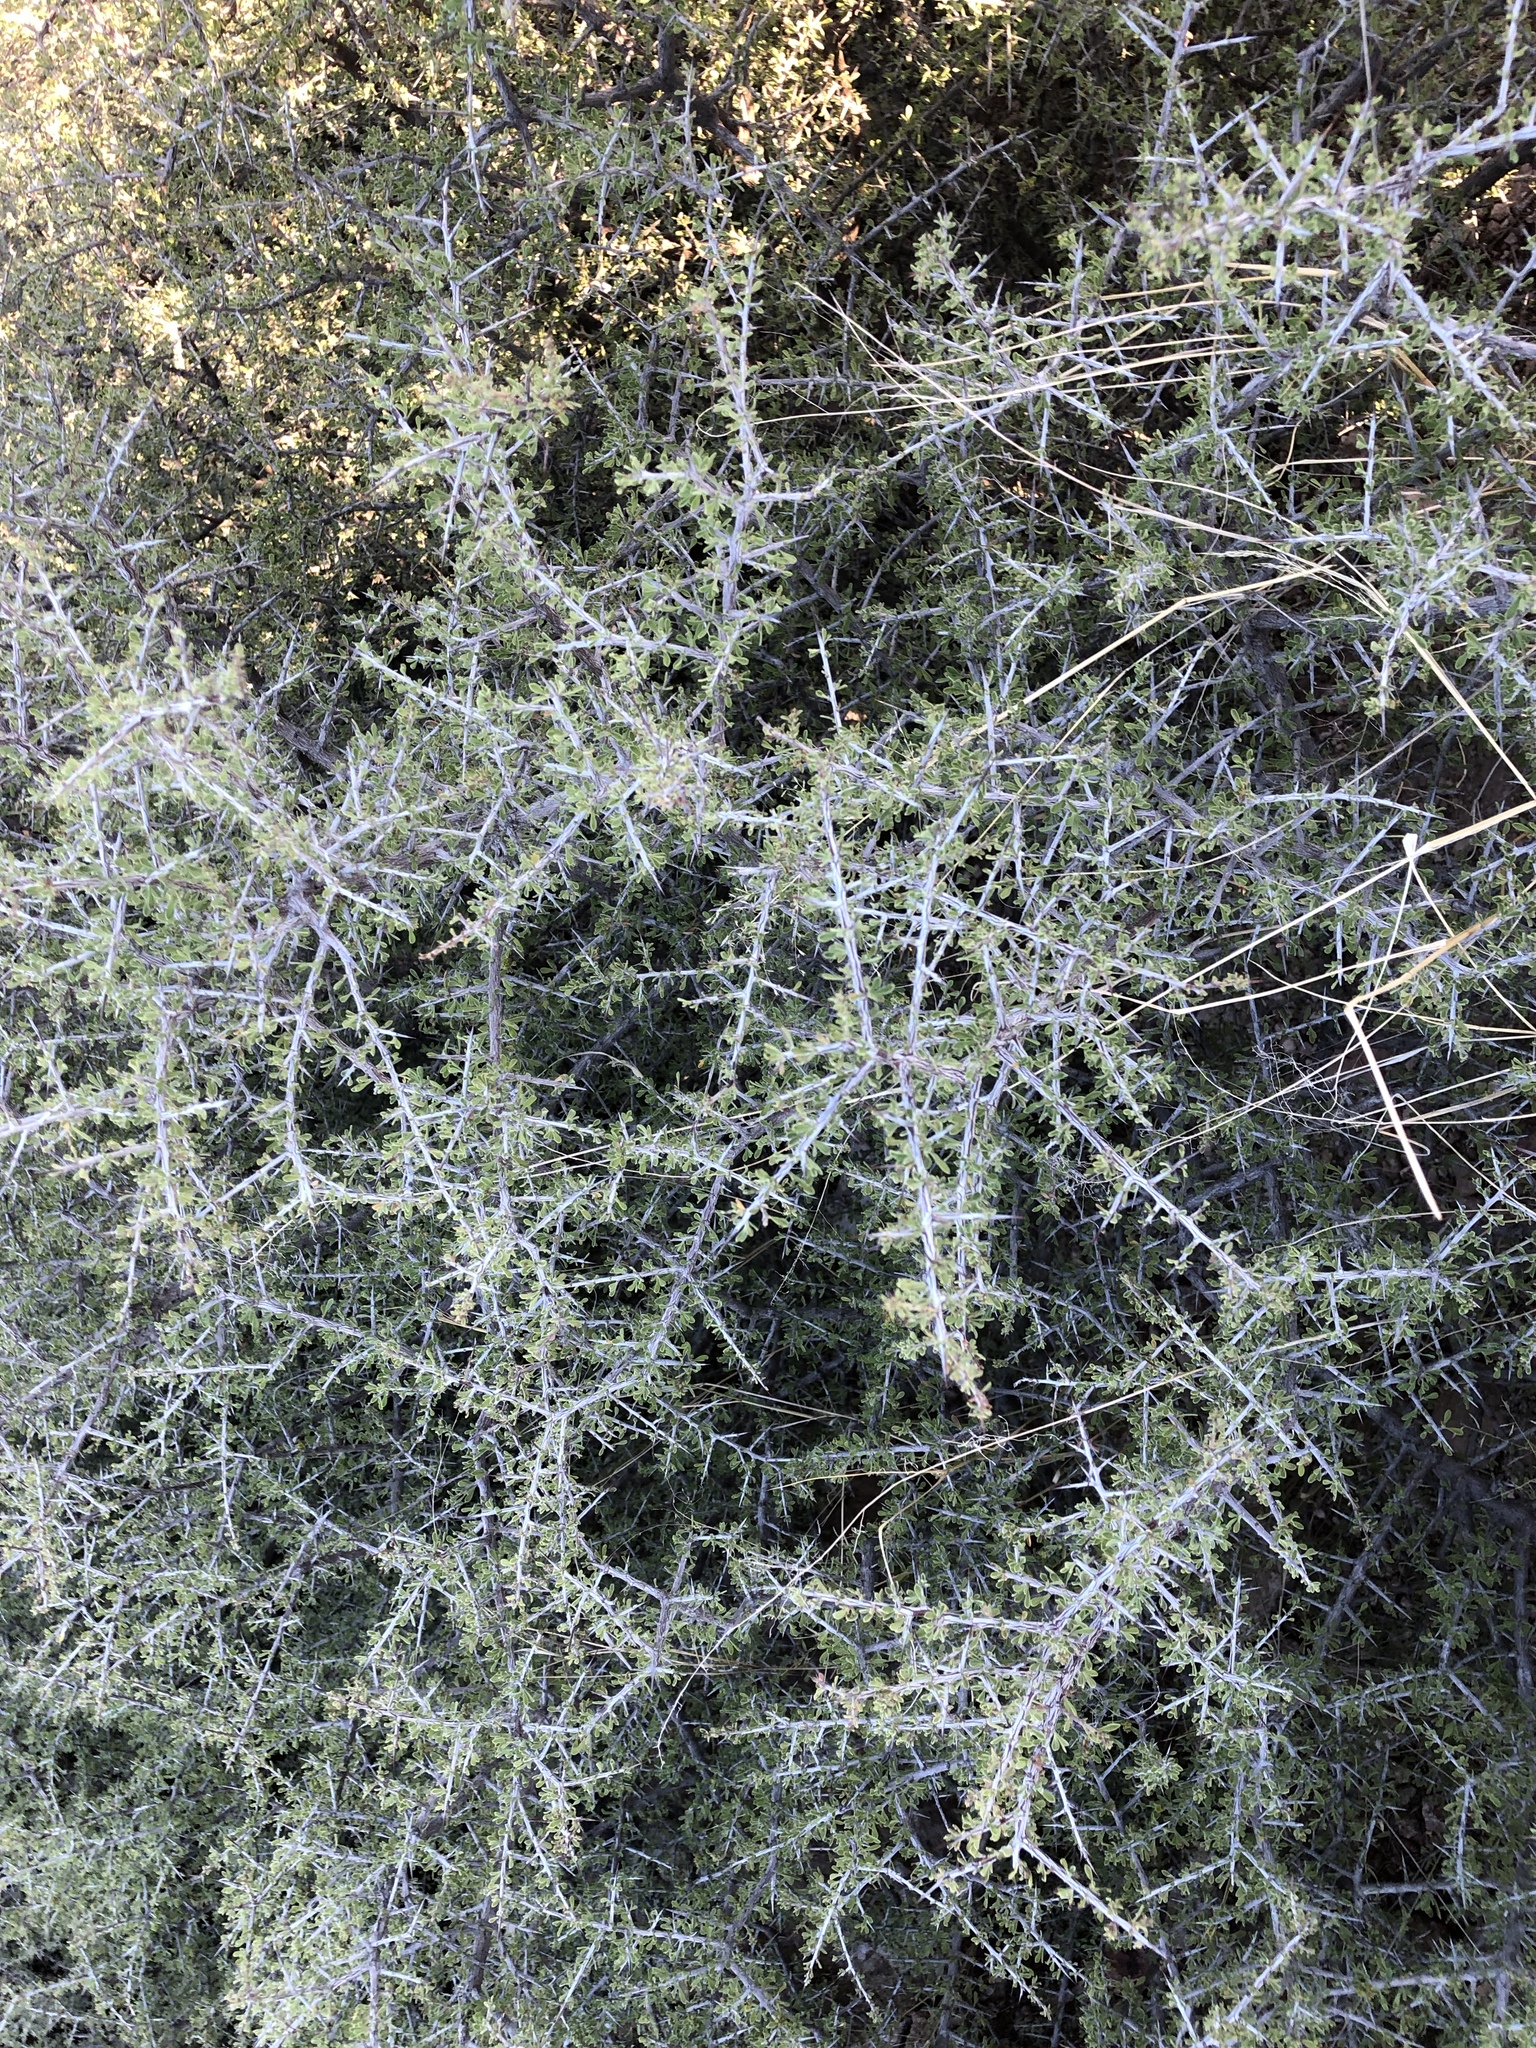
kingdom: Plantae
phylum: Tracheophyta
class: Magnoliopsida
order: Rosales
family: Rhamnaceae
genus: Condalia
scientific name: Condalia warnockii
